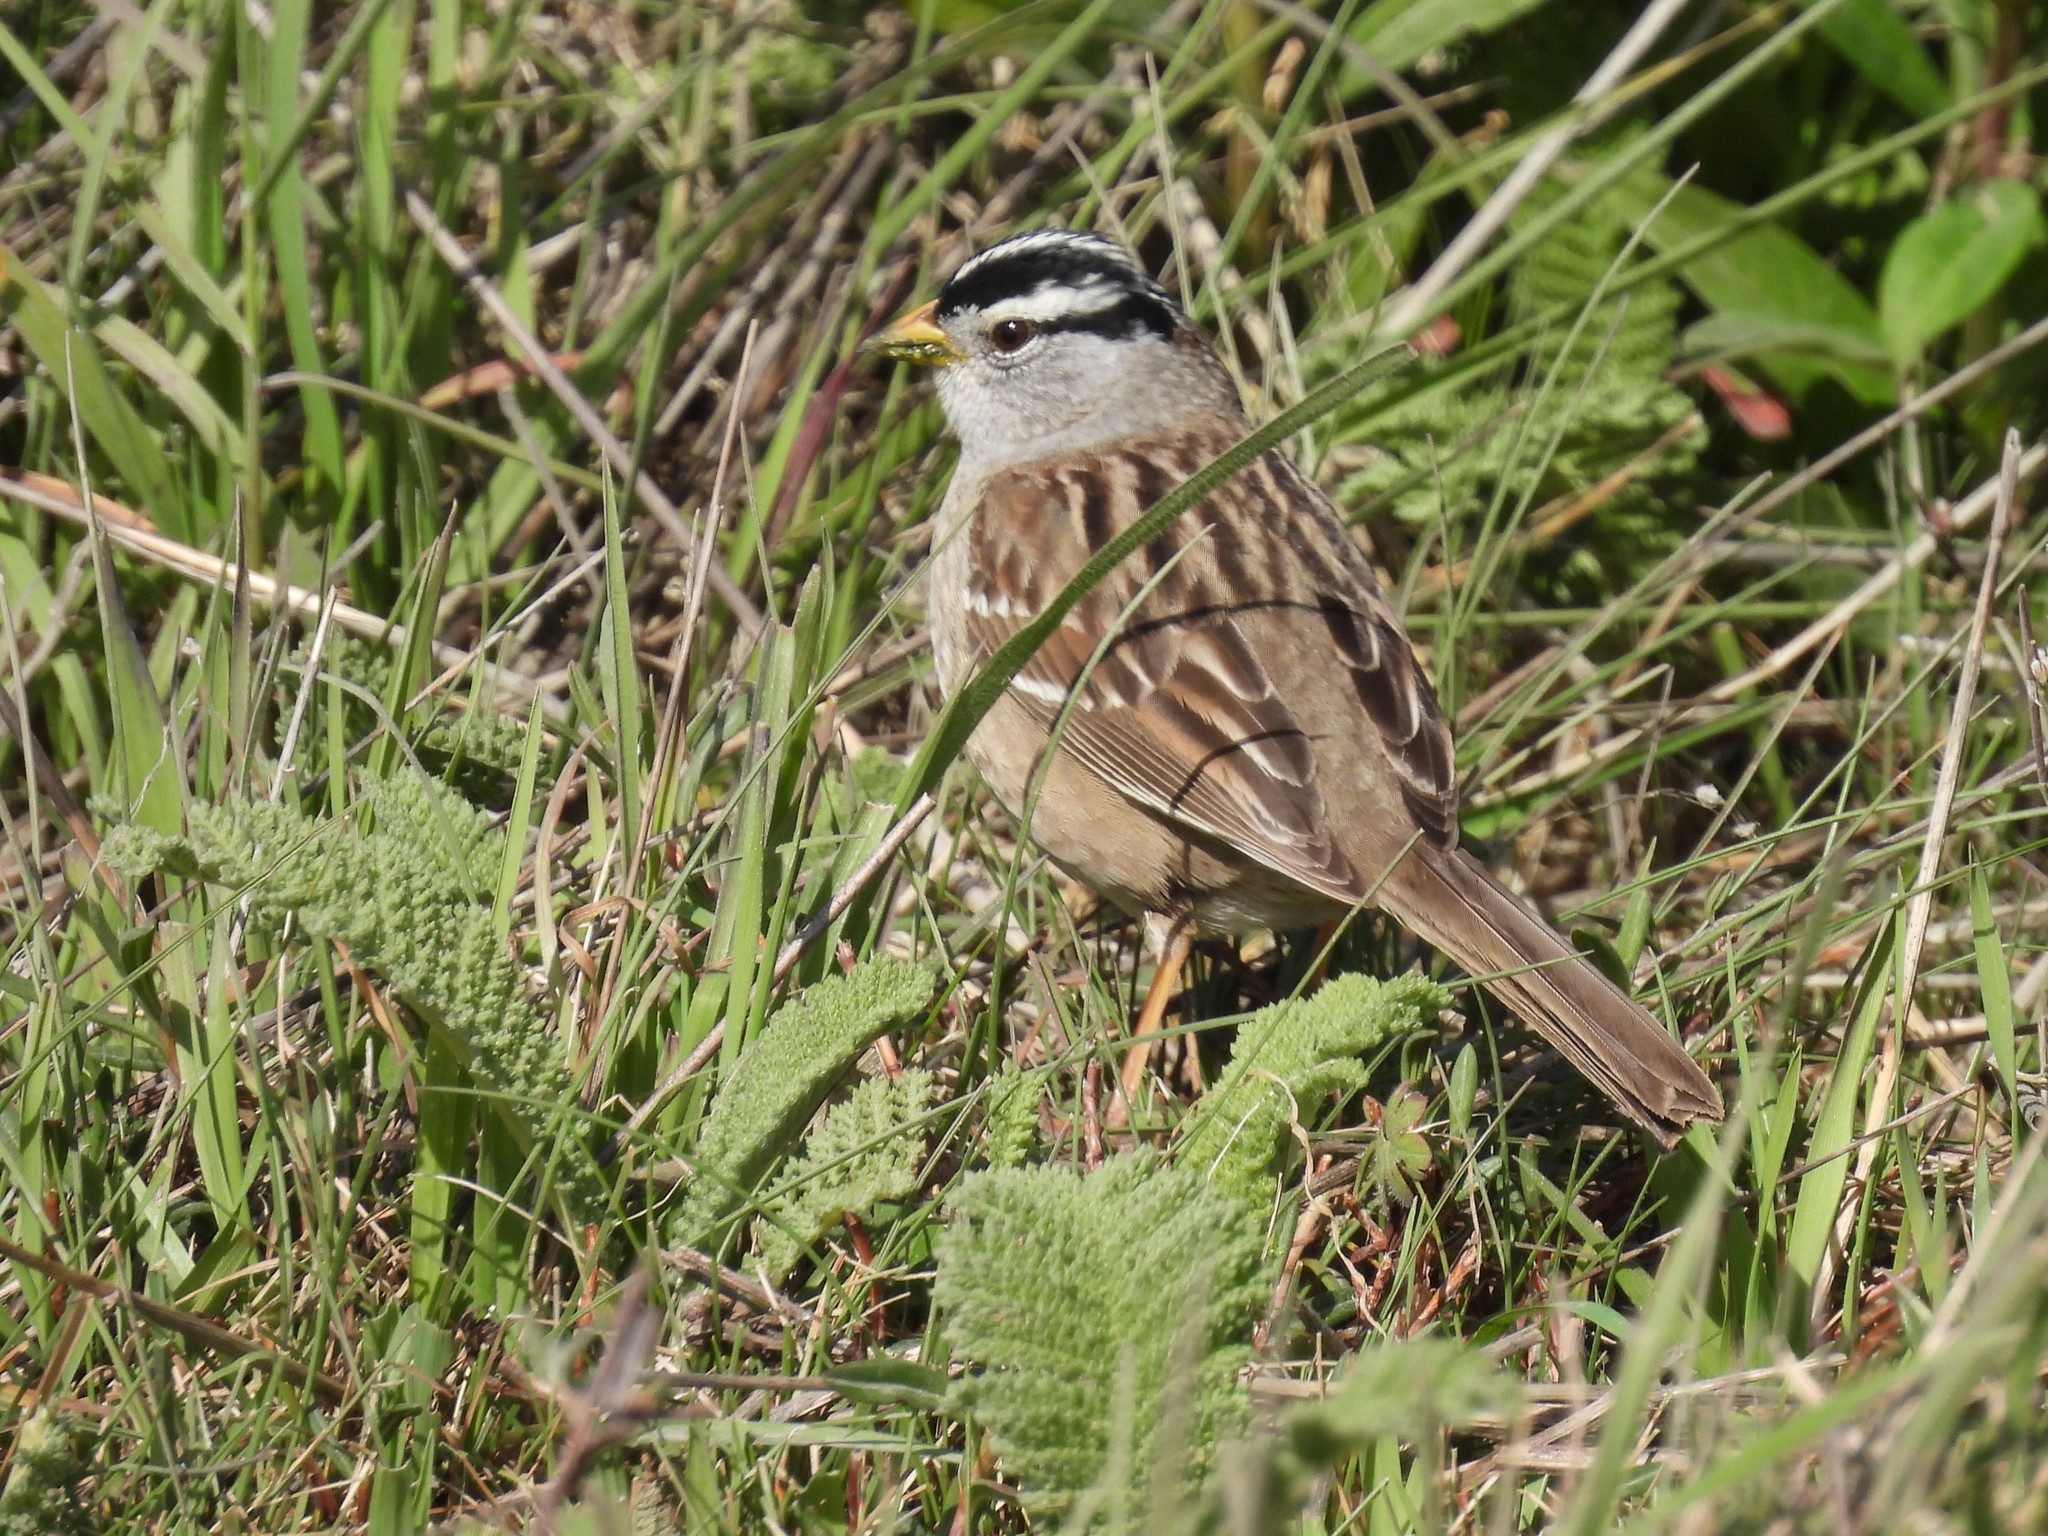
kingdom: Animalia
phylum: Chordata
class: Aves
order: Passeriformes
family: Passerellidae
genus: Zonotrichia
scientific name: Zonotrichia leucophrys
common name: White-crowned sparrow
